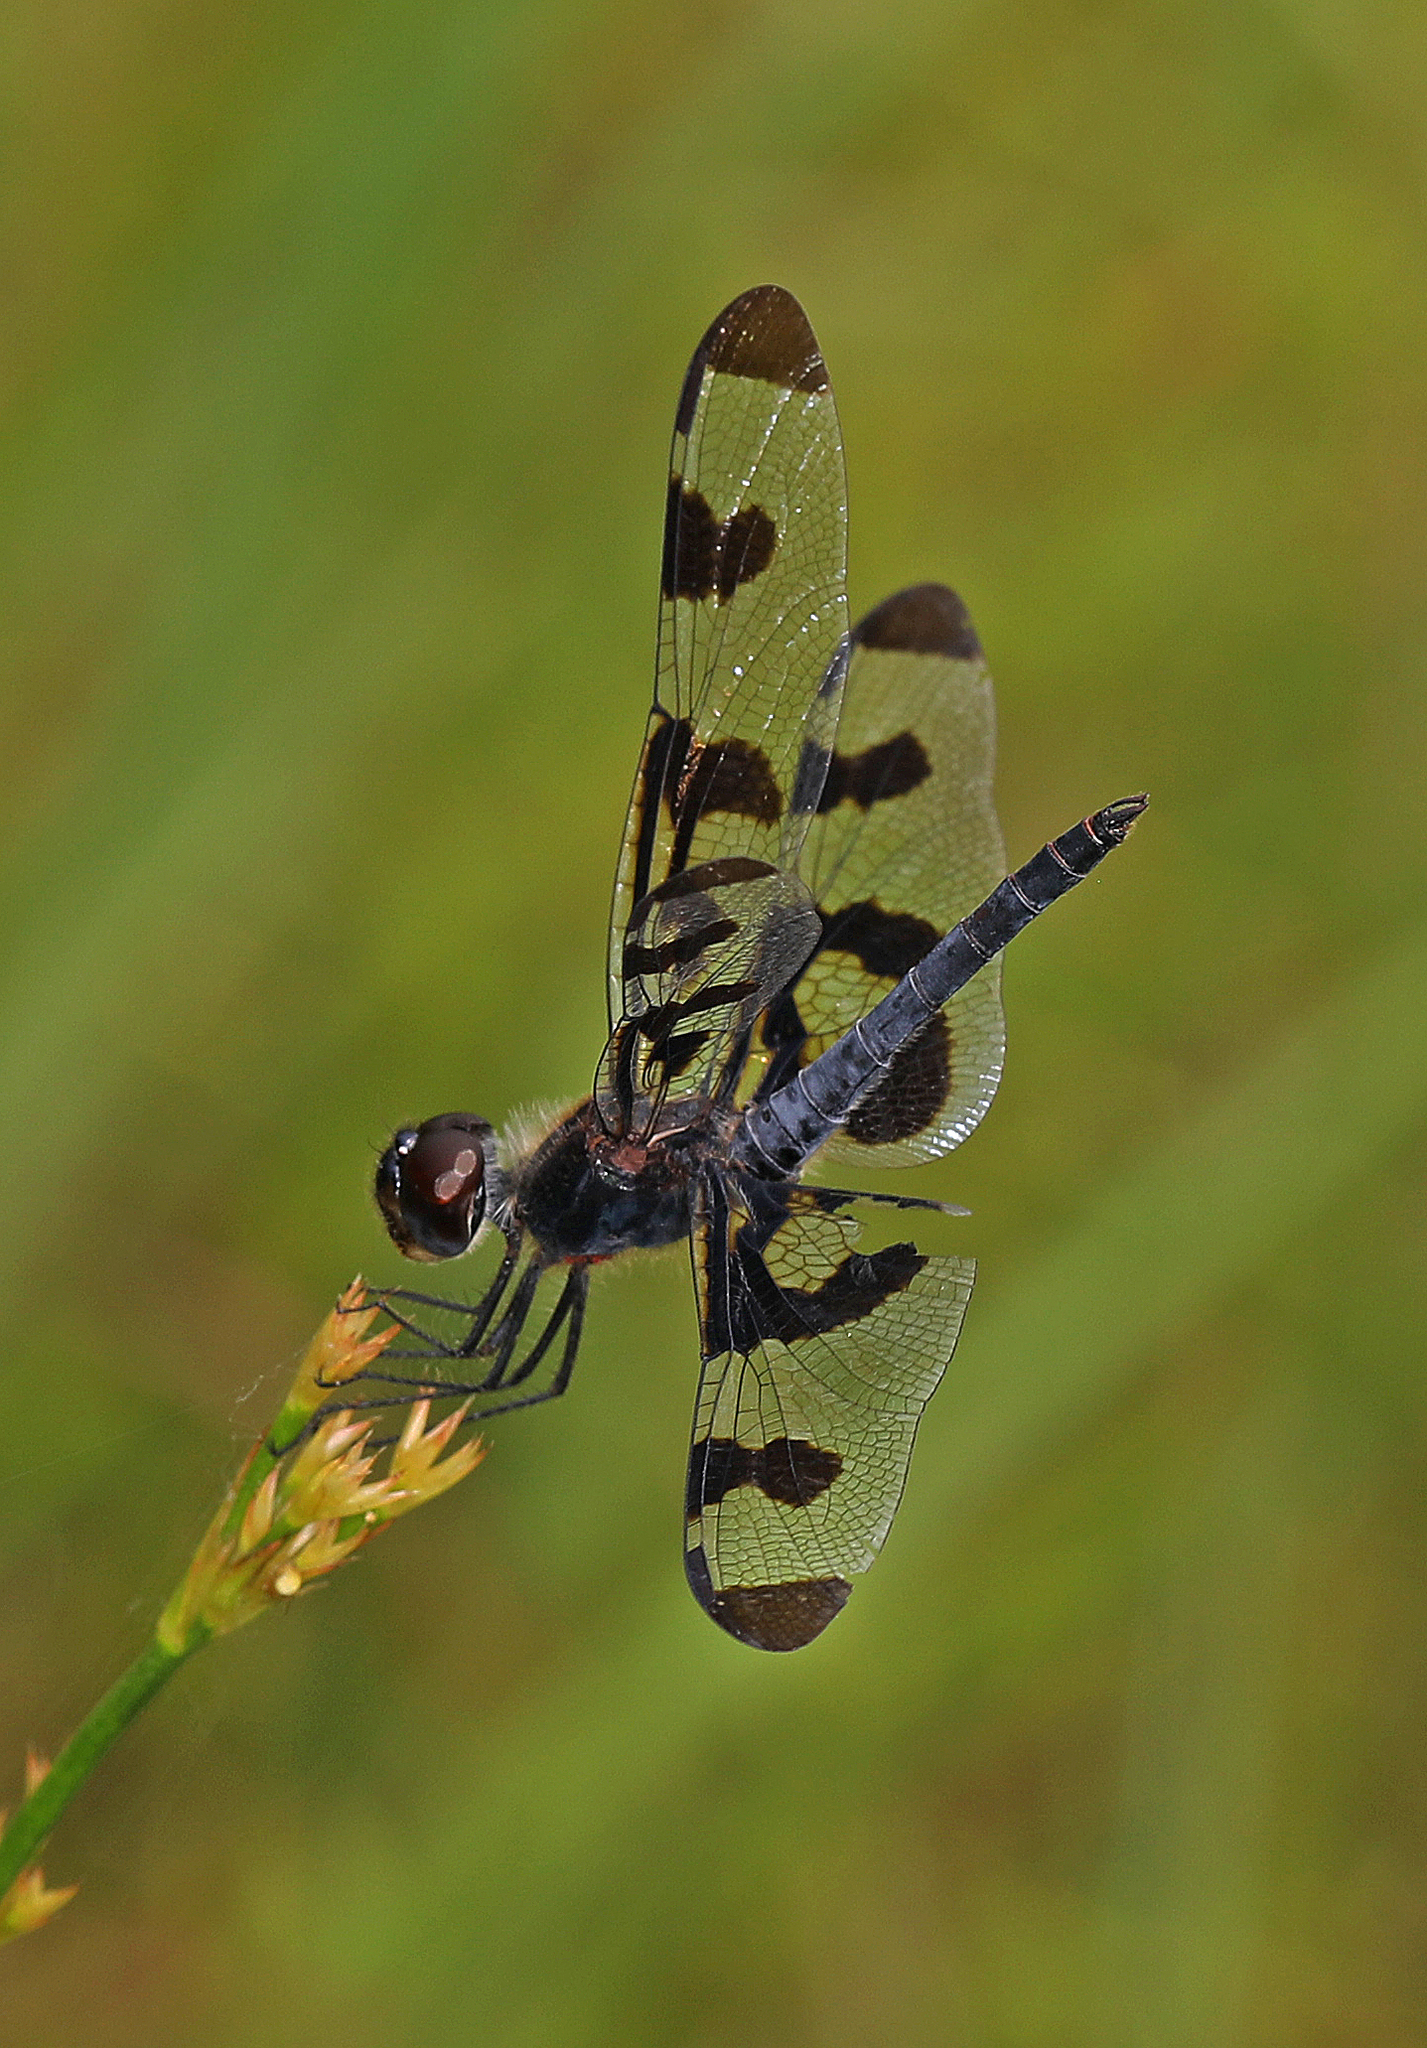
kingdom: Animalia
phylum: Arthropoda
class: Insecta
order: Odonata
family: Libellulidae
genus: Celithemis
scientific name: Celithemis fasciata
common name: Banded pennant
